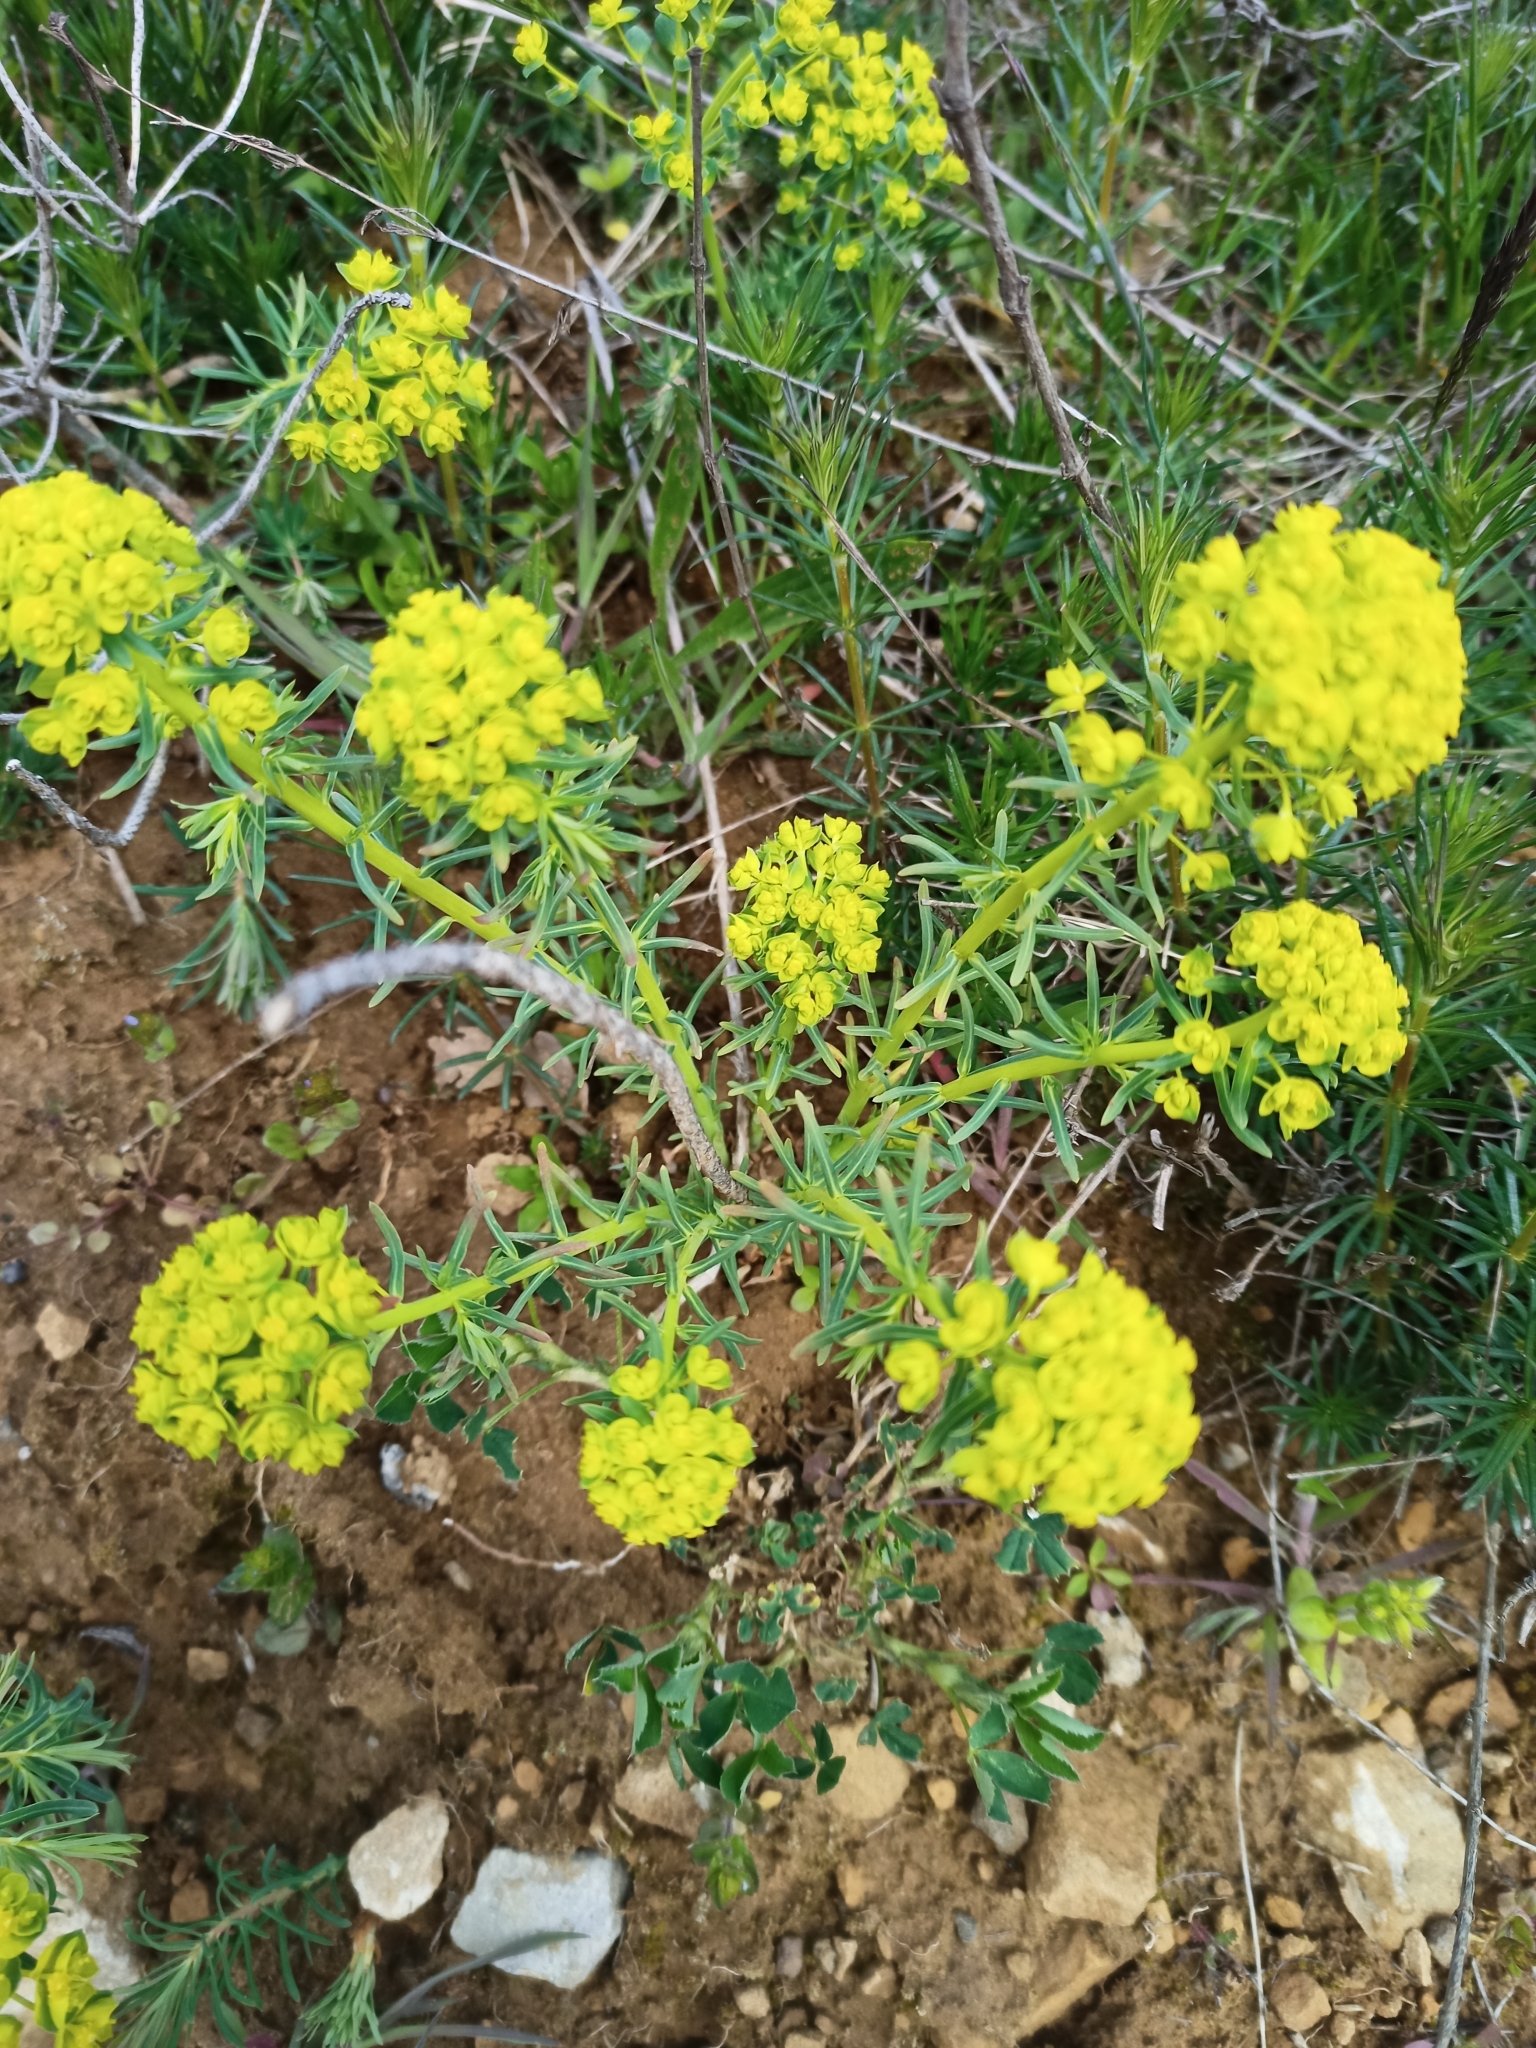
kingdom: Plantae
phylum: Tracheophyta
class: Magnoliopsida
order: Malpighiales
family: Euphorbiaceae
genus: Euphorbia
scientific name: Euphorbia cyparissias
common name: Cypress spurge
